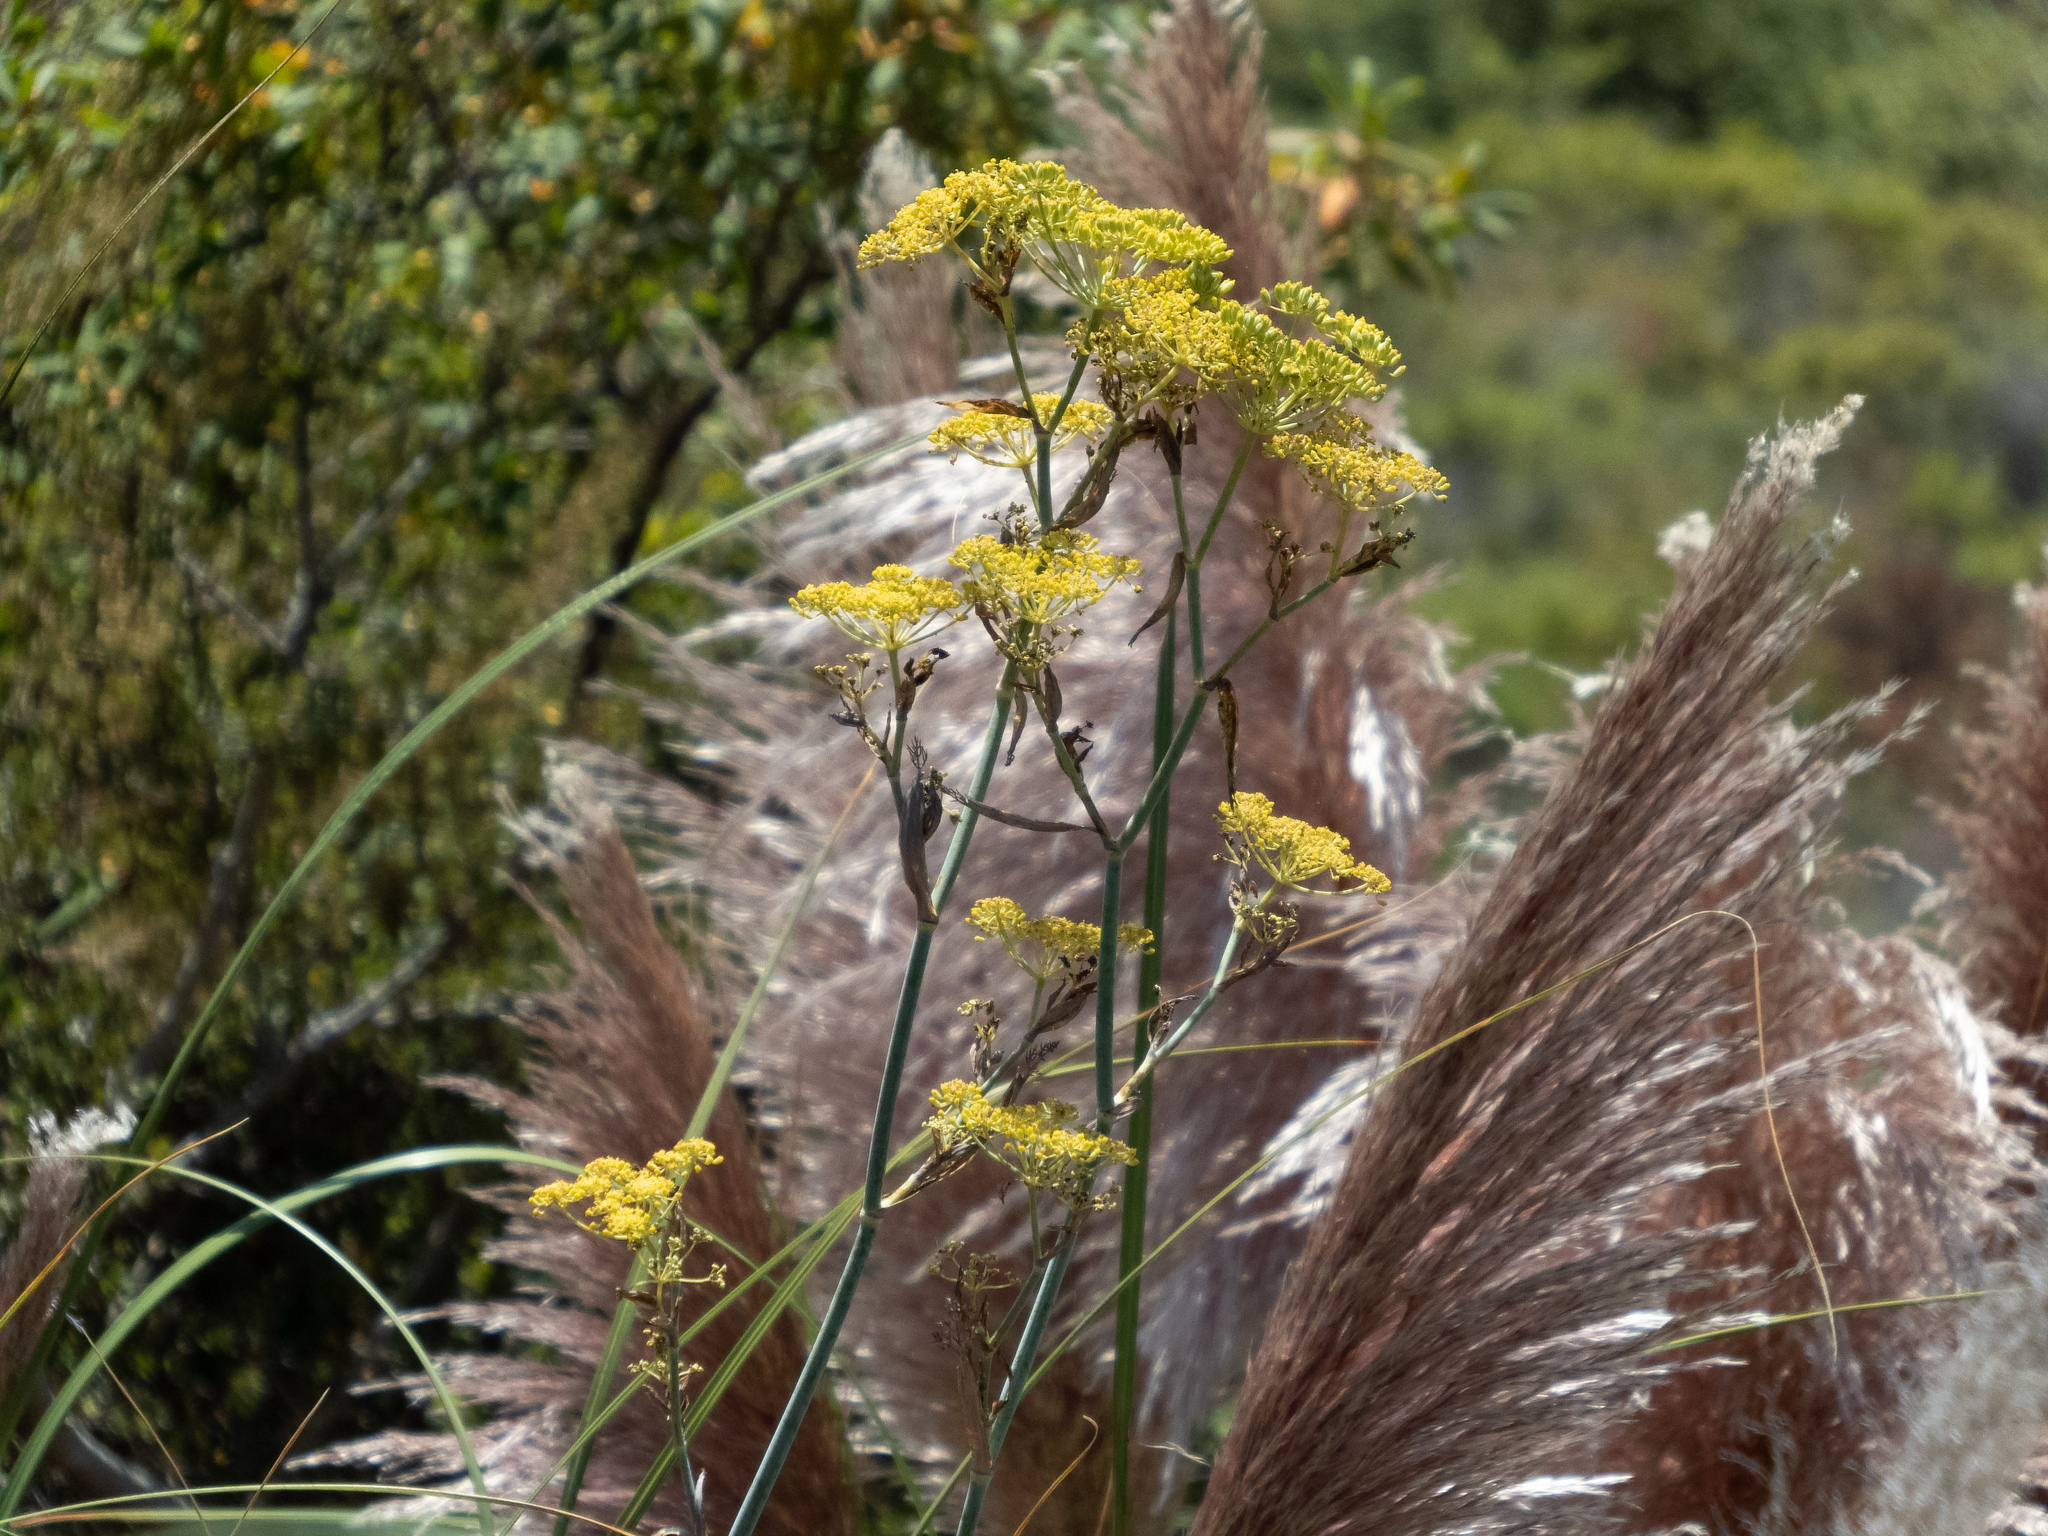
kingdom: Plantae
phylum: Tracheophyta
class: Magnoliopsida
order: Apiales
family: Apiaceae
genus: Foeniculum
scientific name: Foeniculum vulgare
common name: Fennel
